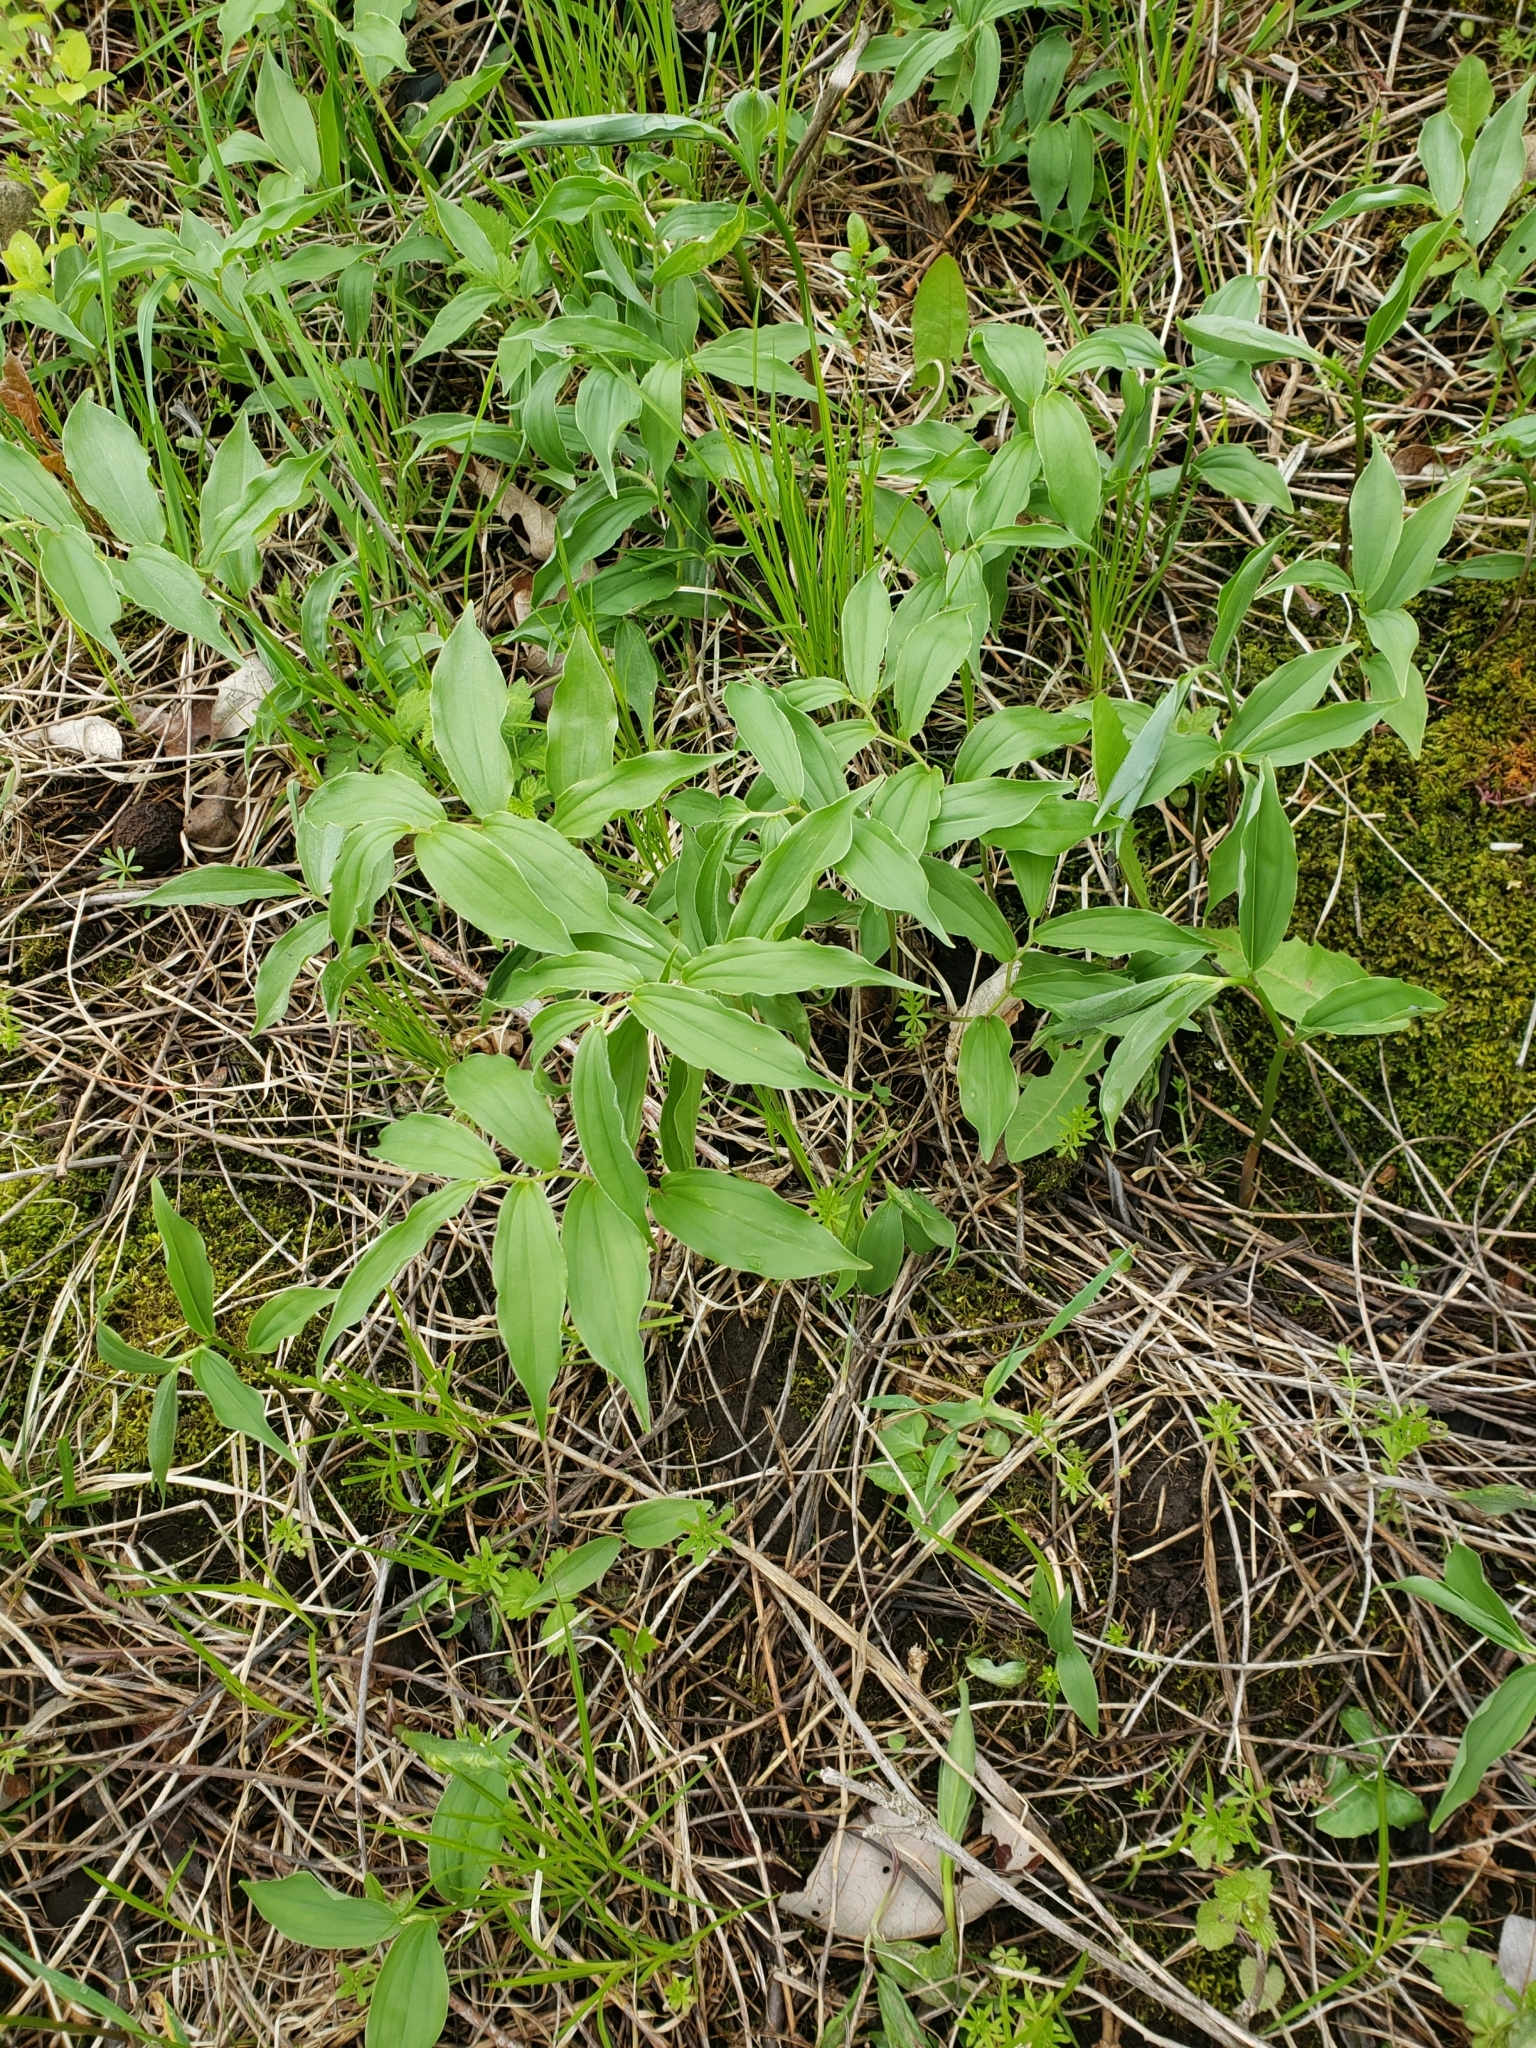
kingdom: Plantae
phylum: Tracheophyta
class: Liliopsida
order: Asparagales
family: Asparagaceae
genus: Maianthemum
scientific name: Maianthemum racemosum
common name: False spikenard
